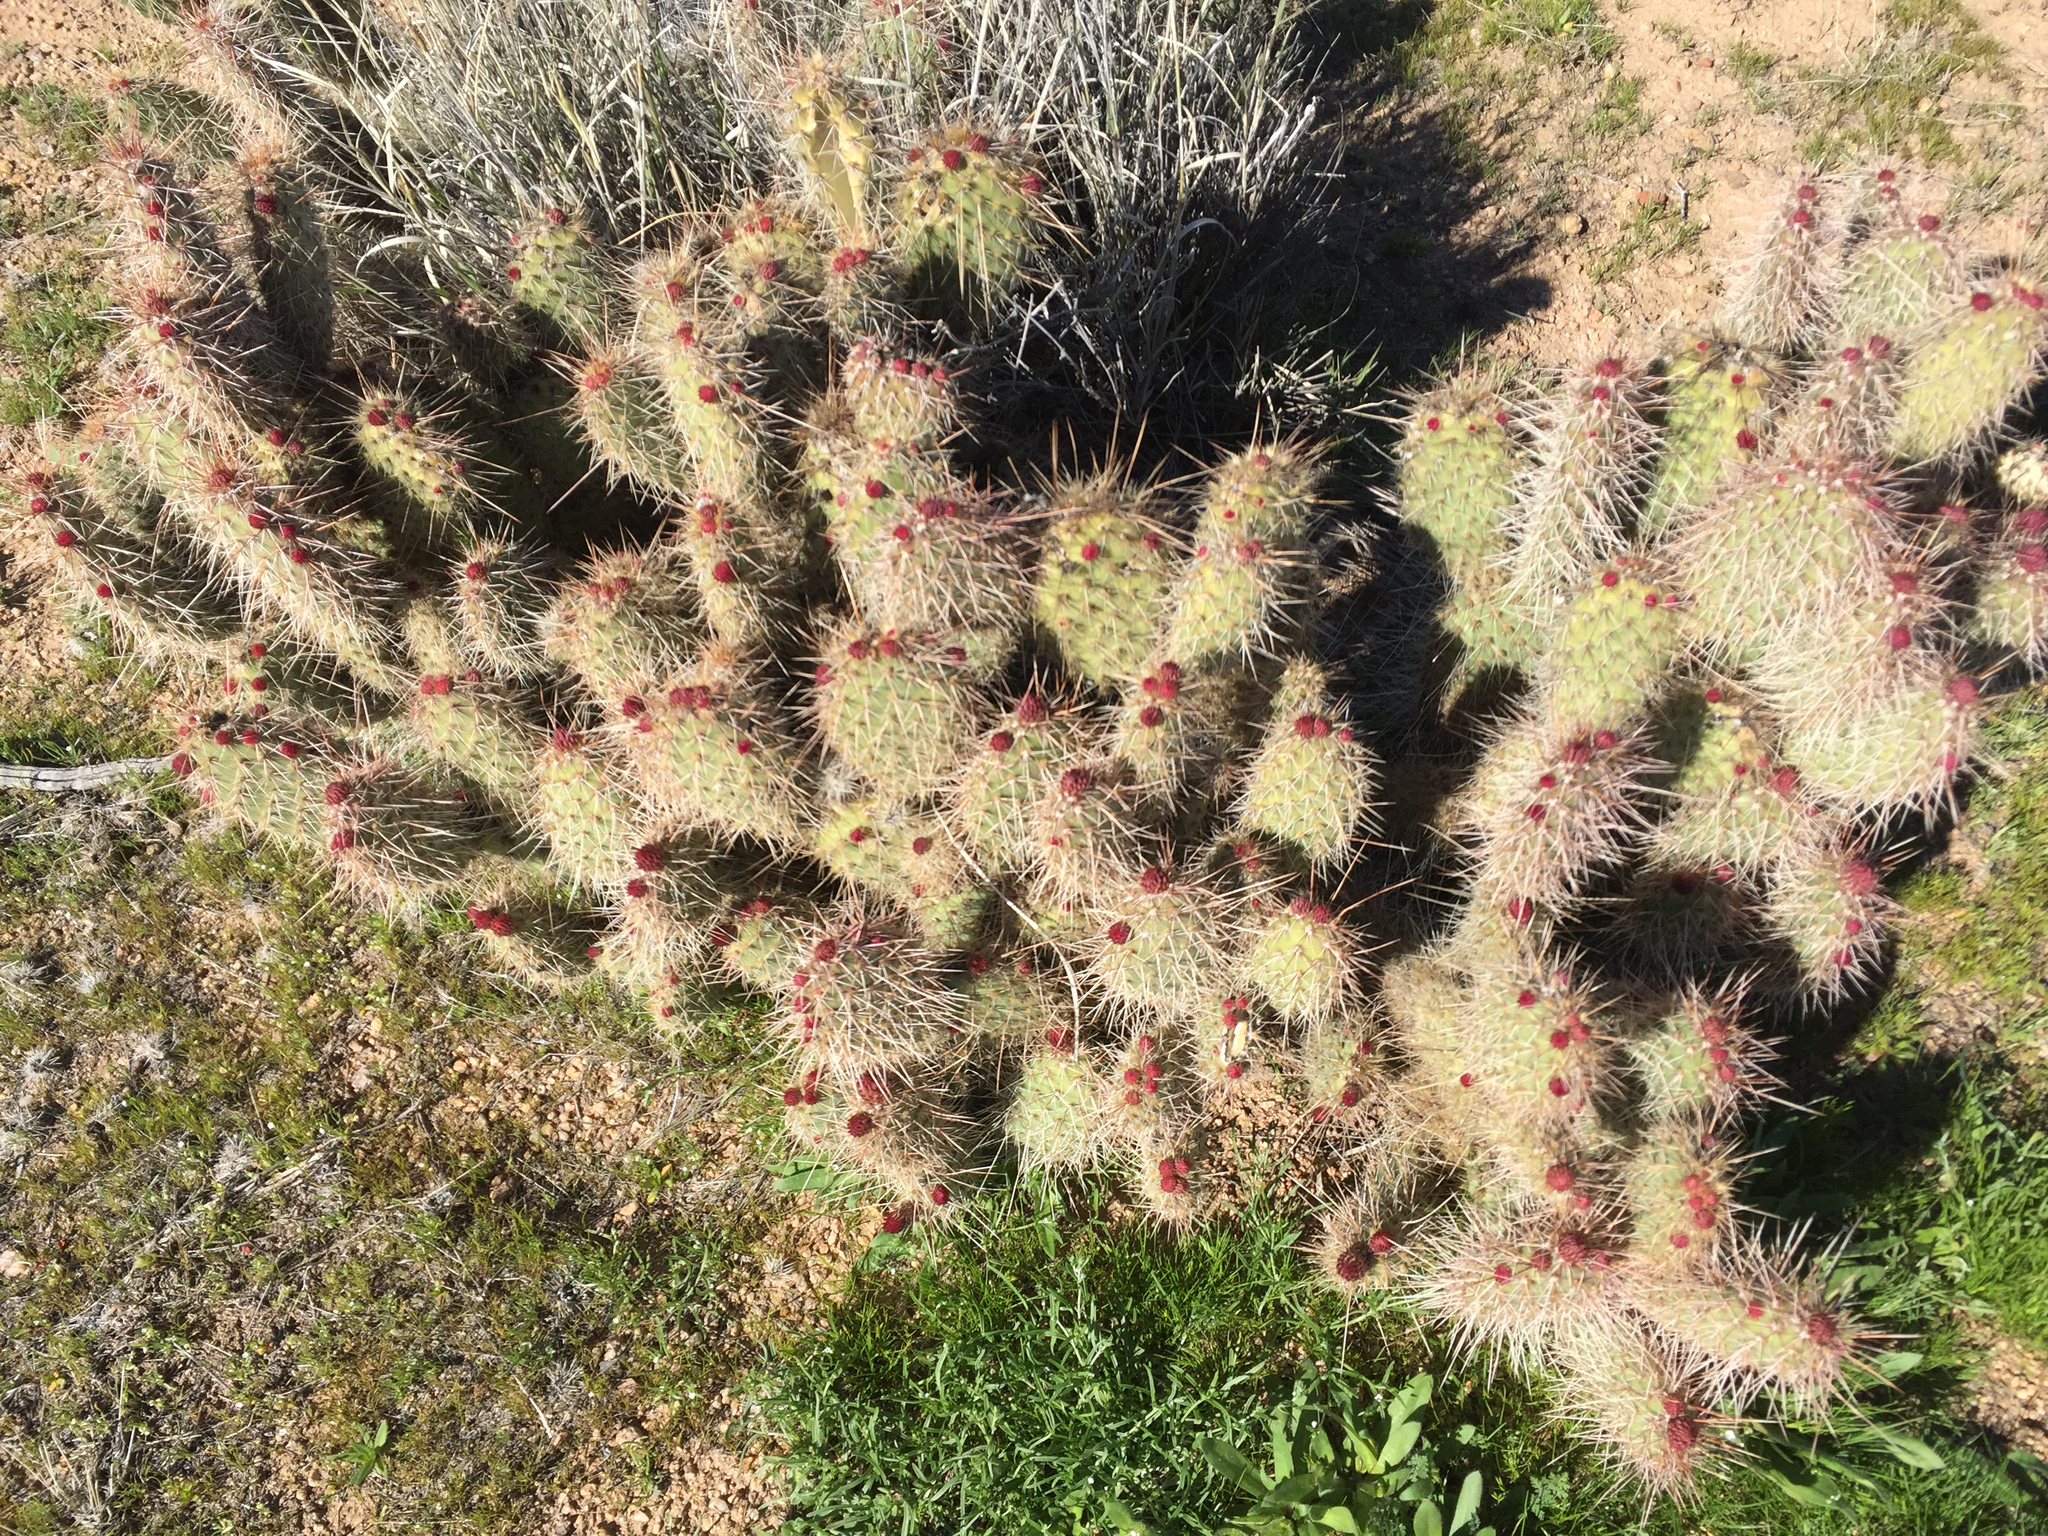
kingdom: Plantae
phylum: Tracheophyta
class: Magnoliopsida
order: Caryophyllales
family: Cactaceae
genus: Opuntia
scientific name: Opuntia polyacantha
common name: Plains prickly-pear
